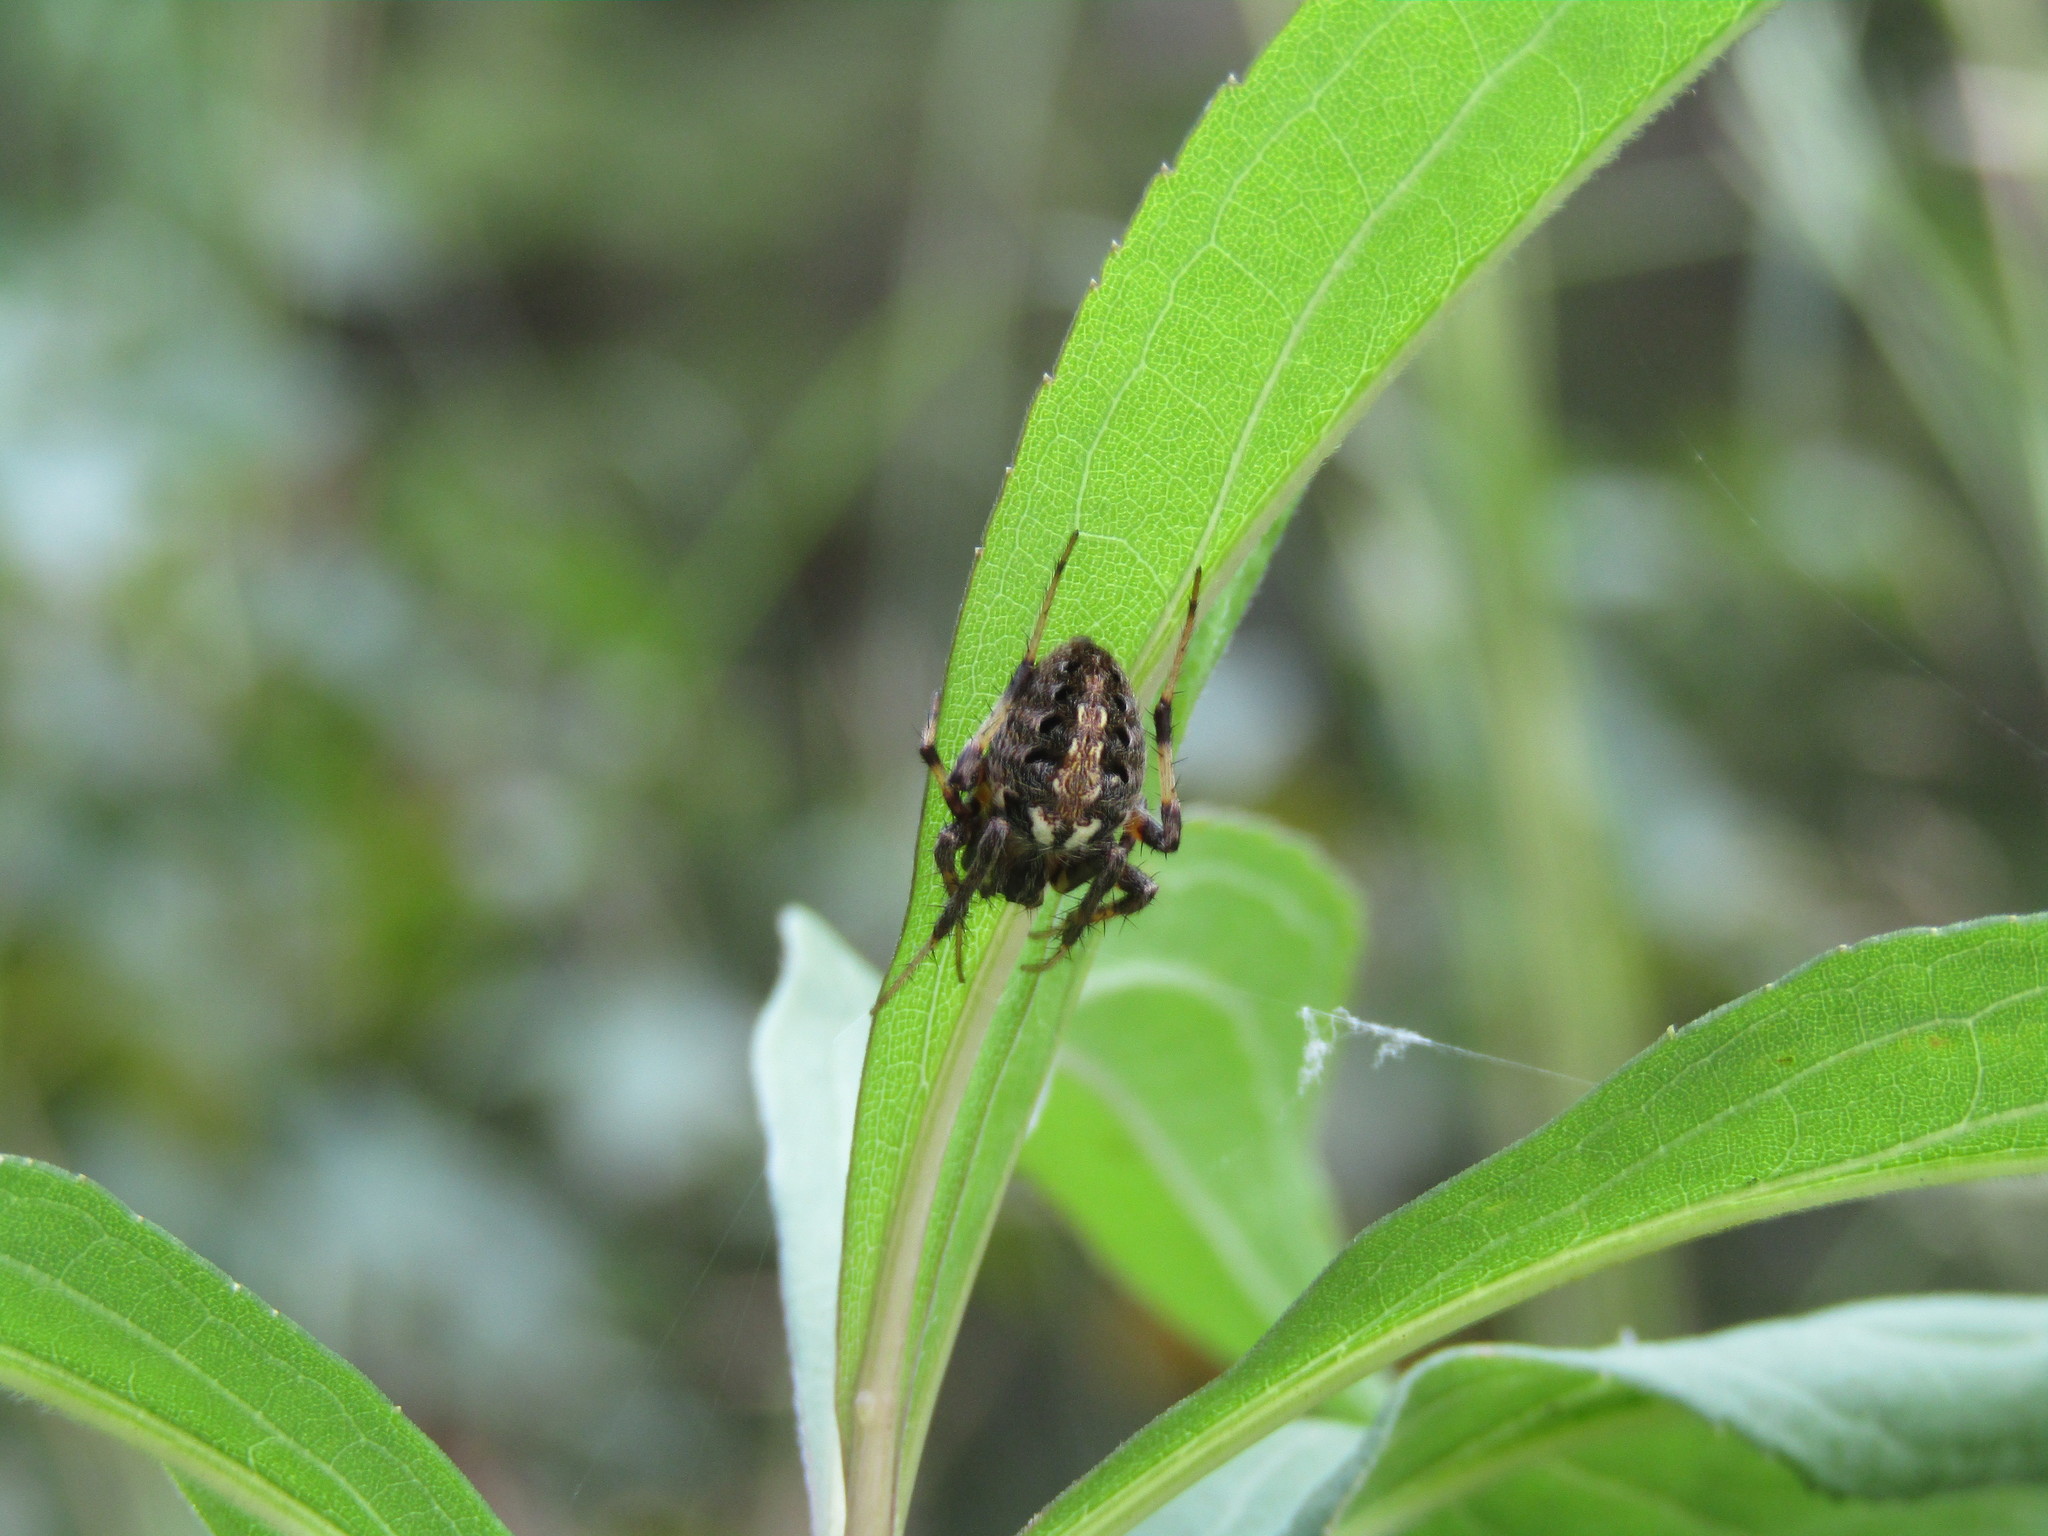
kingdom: Animalia
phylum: Arthropoda
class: Arachnida
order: Araneae
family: Araneidae
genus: Neoscona
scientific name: Neoscona arabesca
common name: Orb weavers
